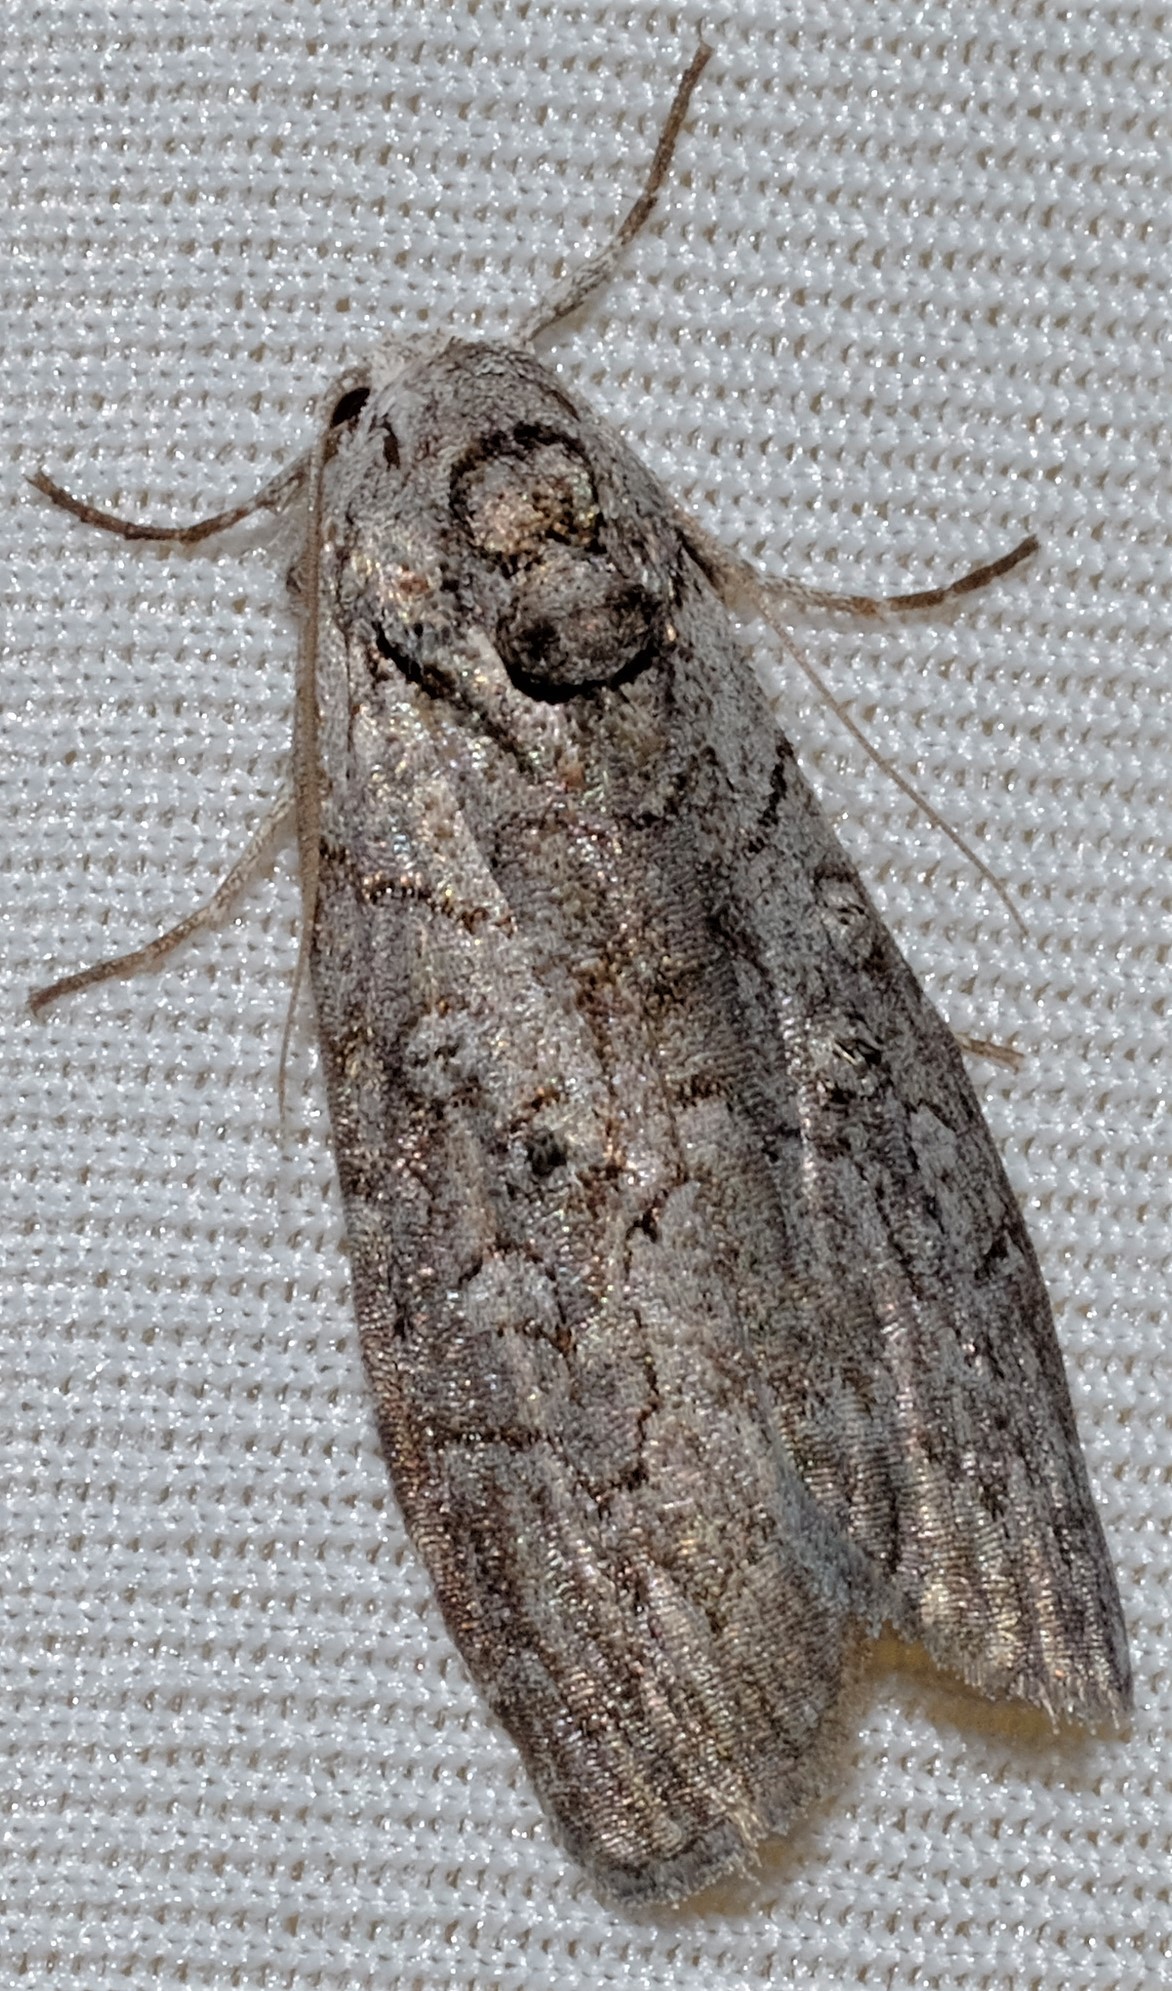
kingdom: Animalia
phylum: Arthropoda
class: Insecta
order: Lepidoptera
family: Nolidae
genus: Elesma
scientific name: Elesma subglauca
